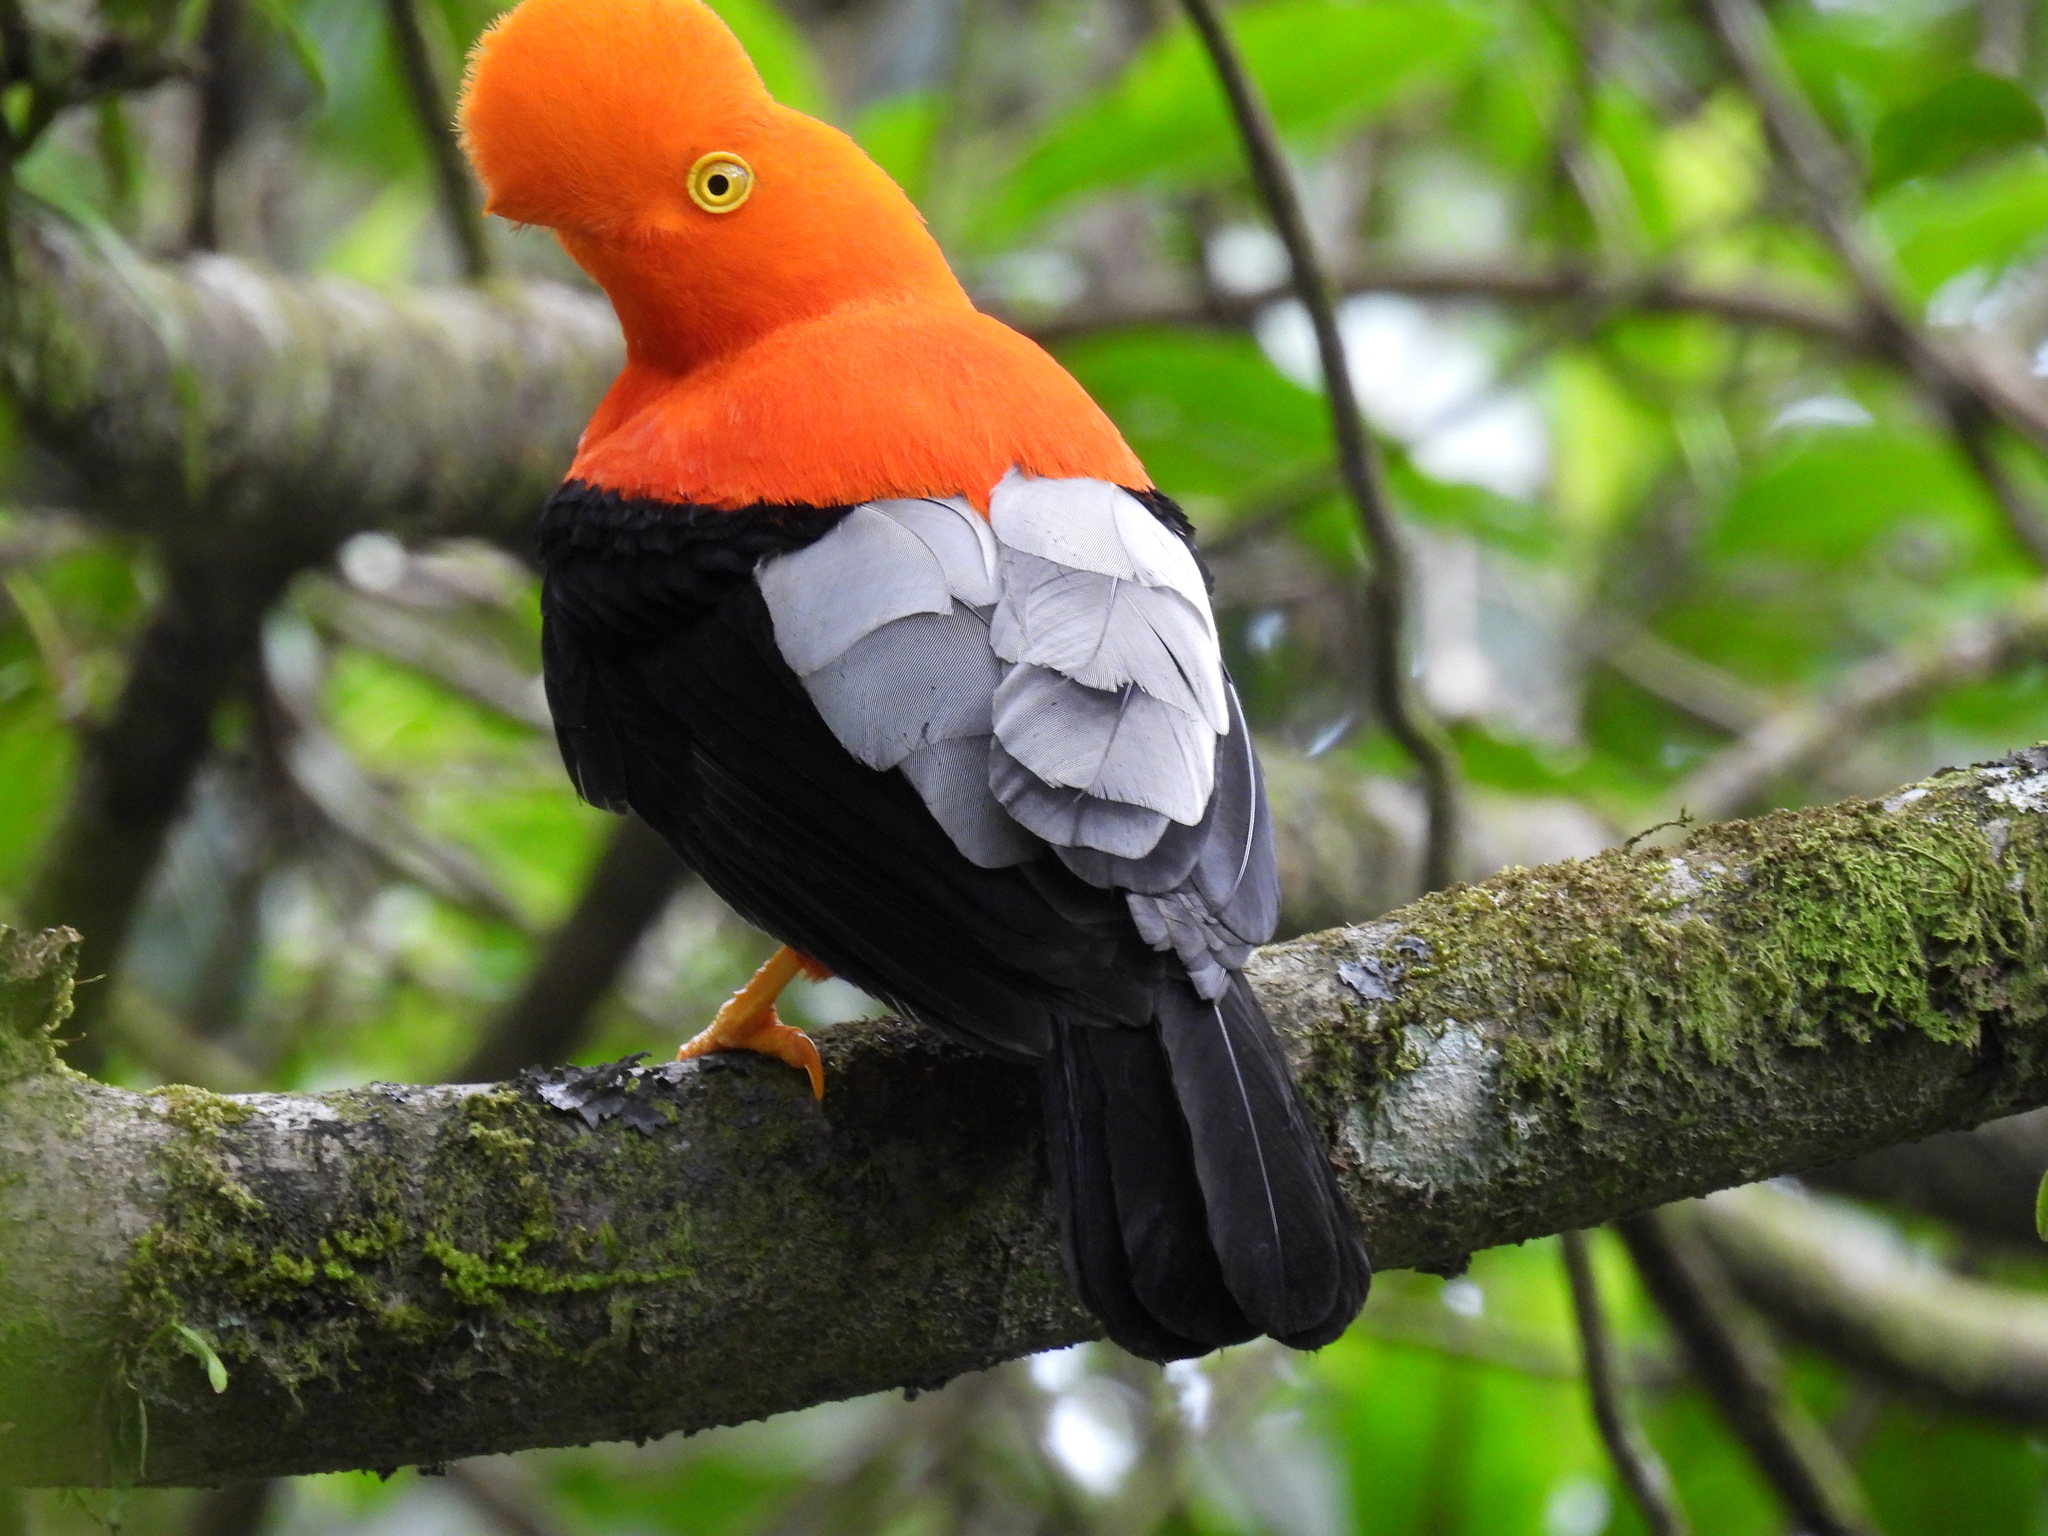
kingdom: Animalia
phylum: Chordata
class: Aves
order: Passeriformes
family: Cotingidae
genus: Rupicola
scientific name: Rupicola peruvianus
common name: Andean cock-of-the-rock
